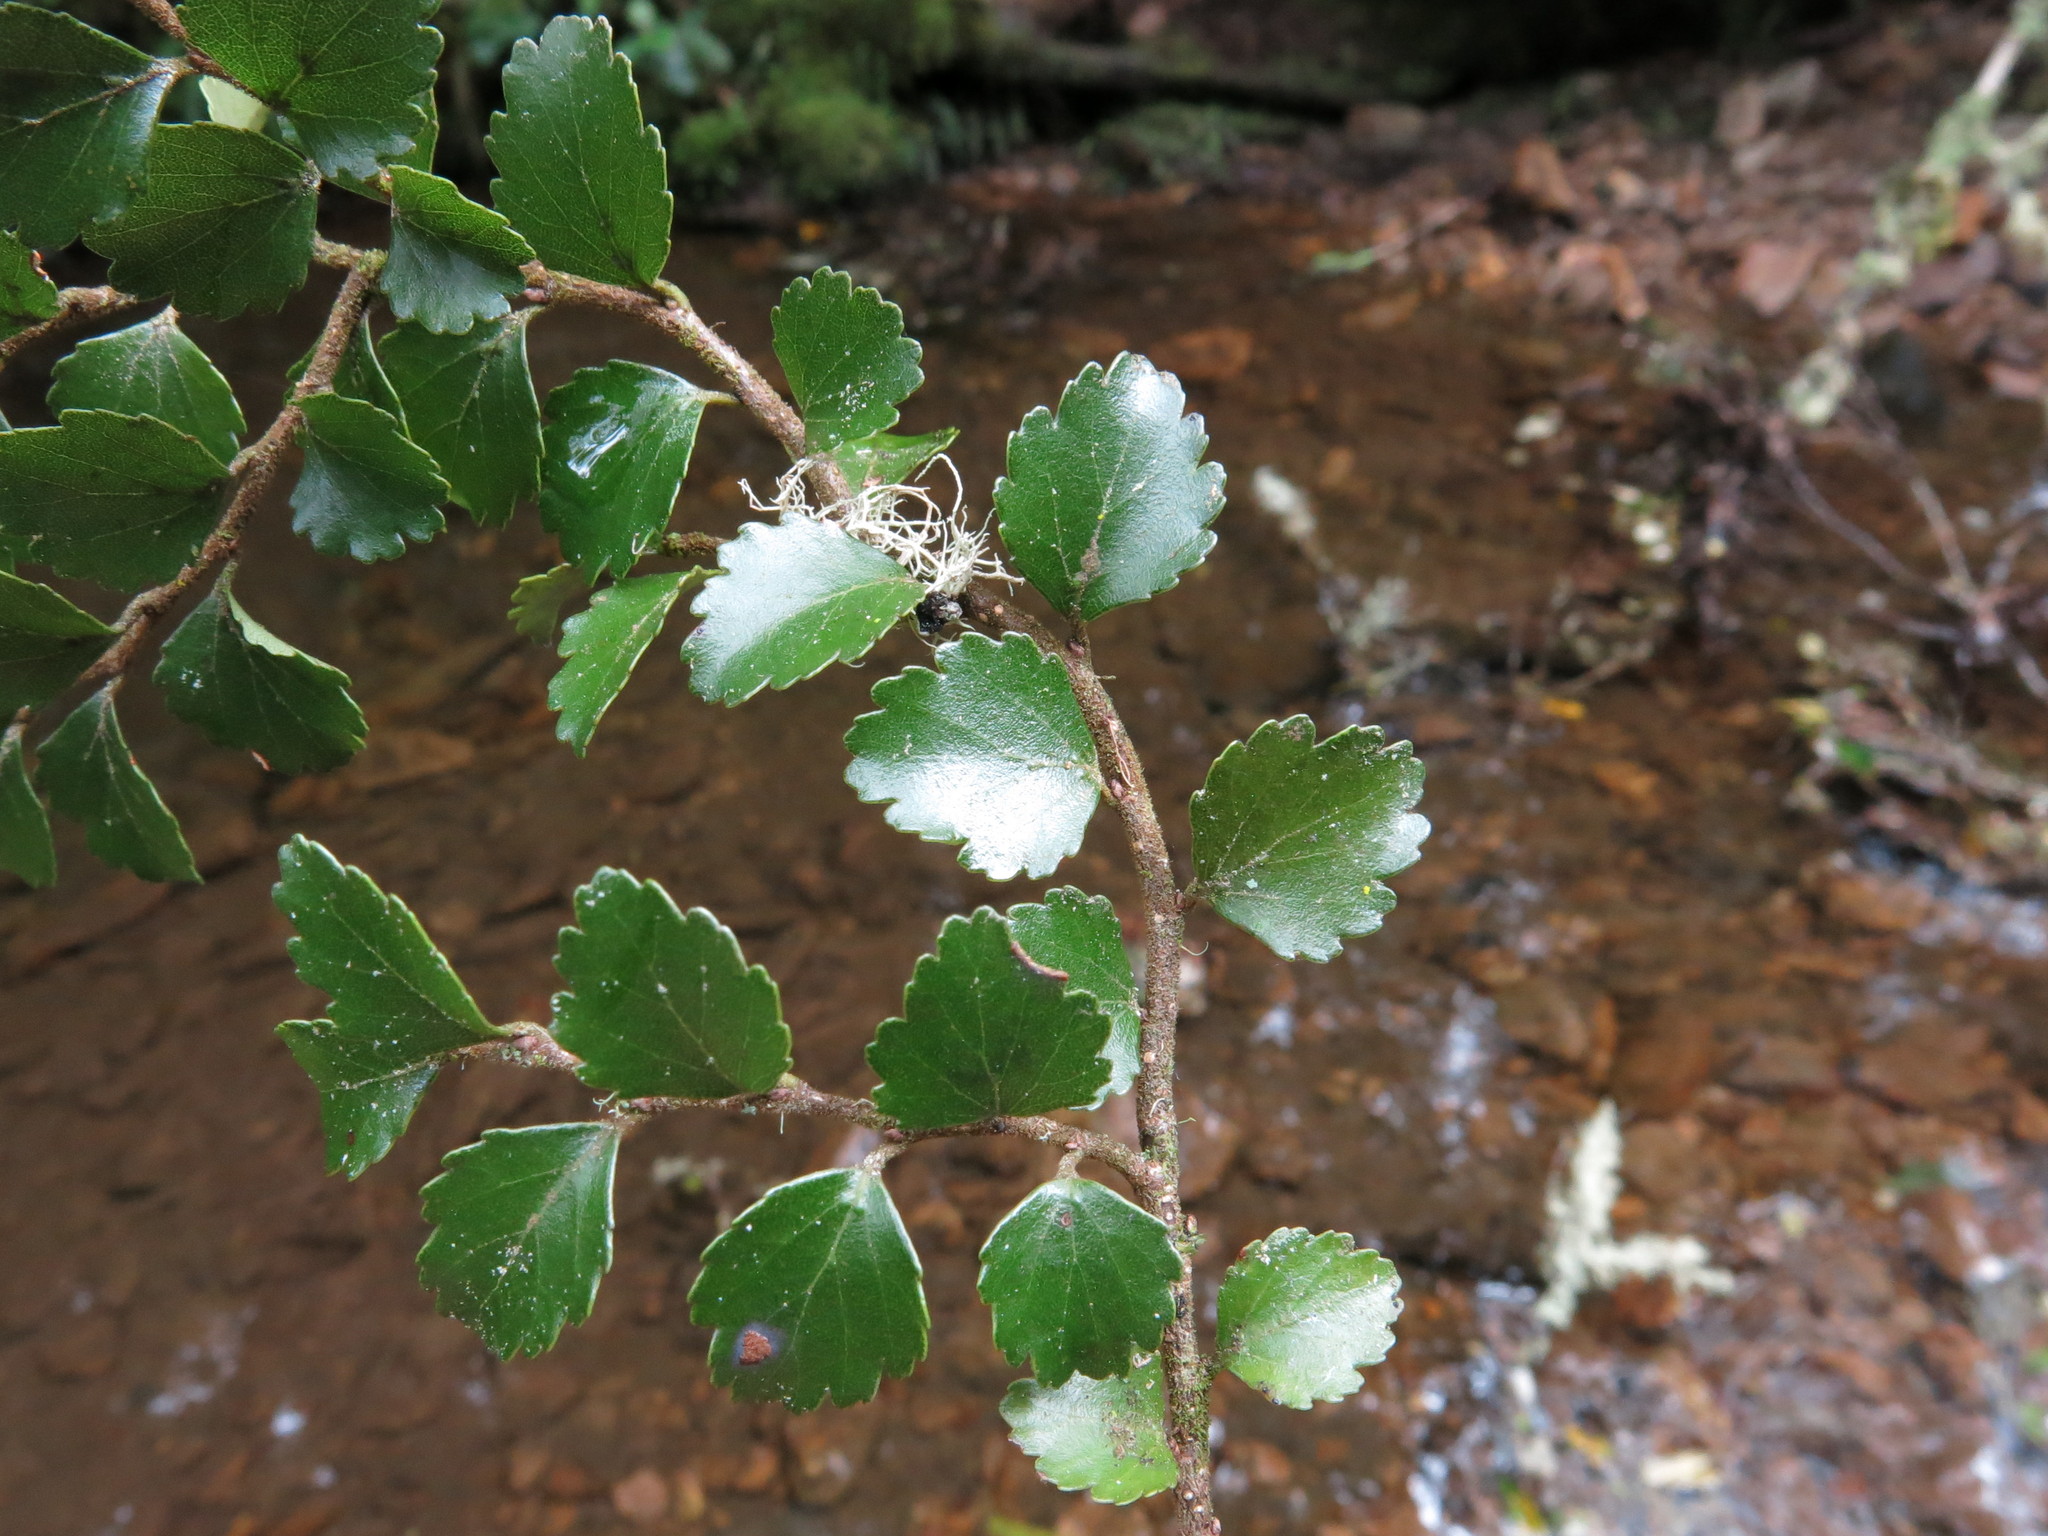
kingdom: Plantae
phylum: Tracheophyta
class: Magnoliopsida
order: Fagales
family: Nothofagaceae
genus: Nothofagus
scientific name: Nothofagus menziesii
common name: Silver beech
